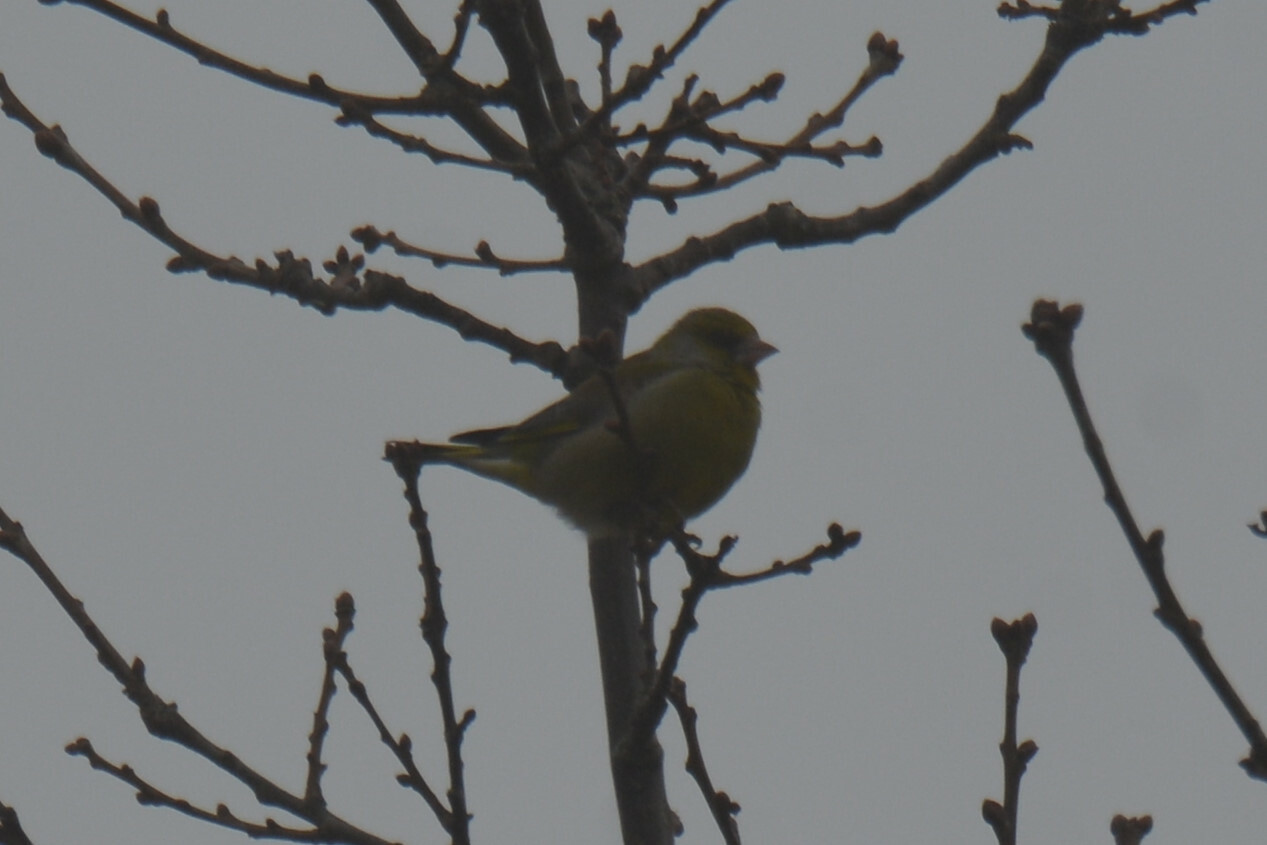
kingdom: Plantae
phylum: Tracheophyta
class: Liliopsida
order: Poales
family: Poaceae
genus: Chloris
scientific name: Chloris chloris
